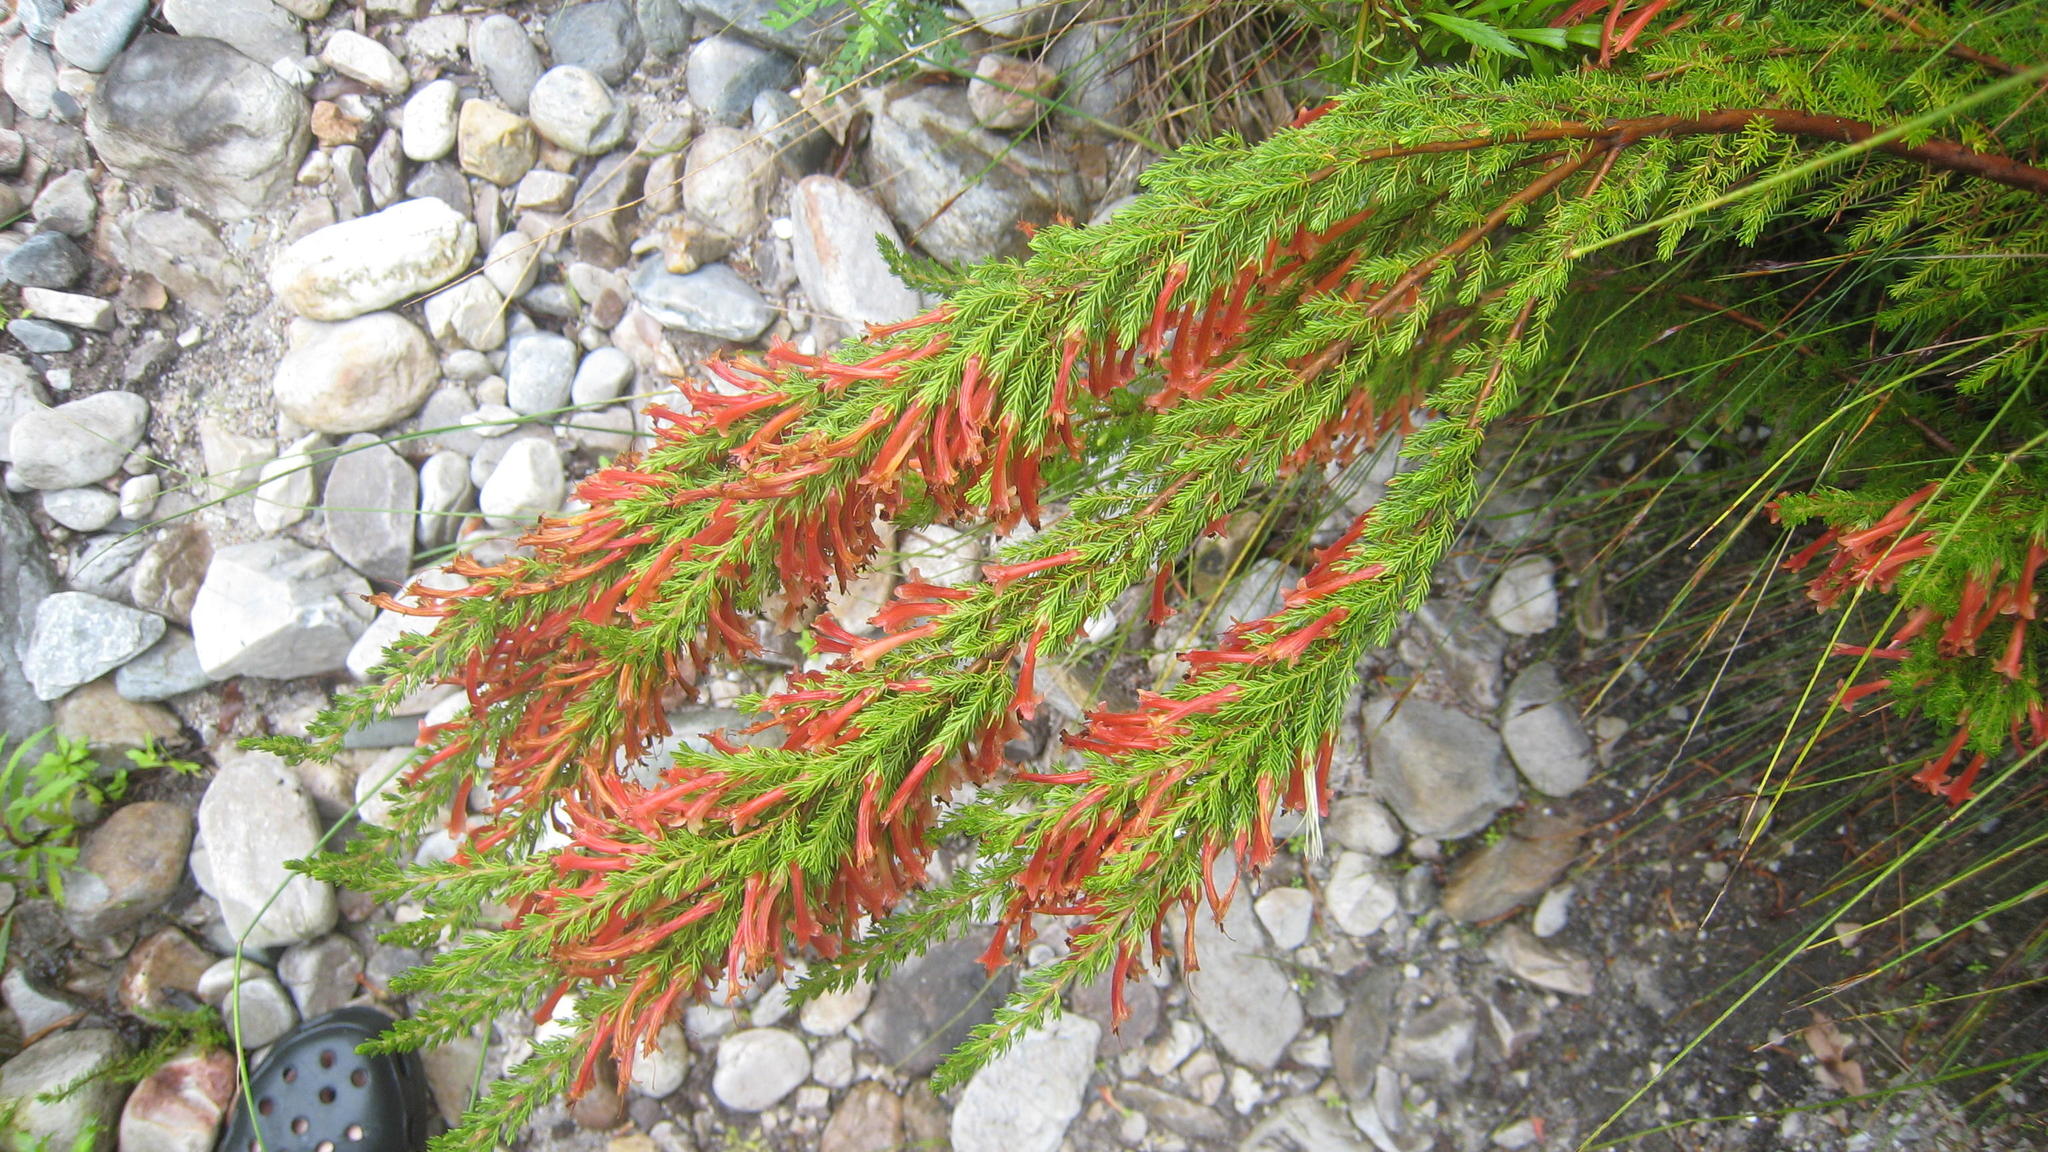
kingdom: Plantae
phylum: Tracheophyta
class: Magnoliopsida
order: Ericales
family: Ericaceae
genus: Erica
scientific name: Erica curviflora
